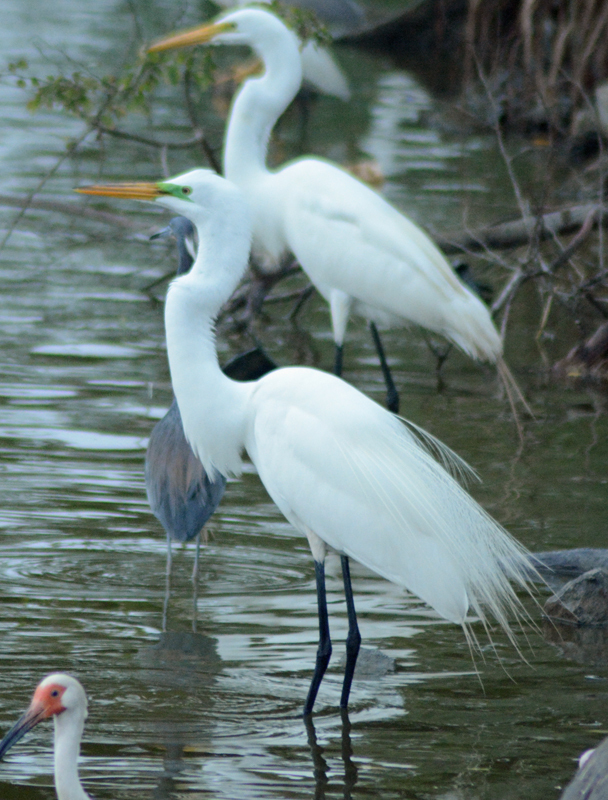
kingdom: Animalia
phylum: Chordata
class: Aves
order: Pelecaniformes
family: Ardeidae
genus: Ardea
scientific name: Ardea alba
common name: Great egret
